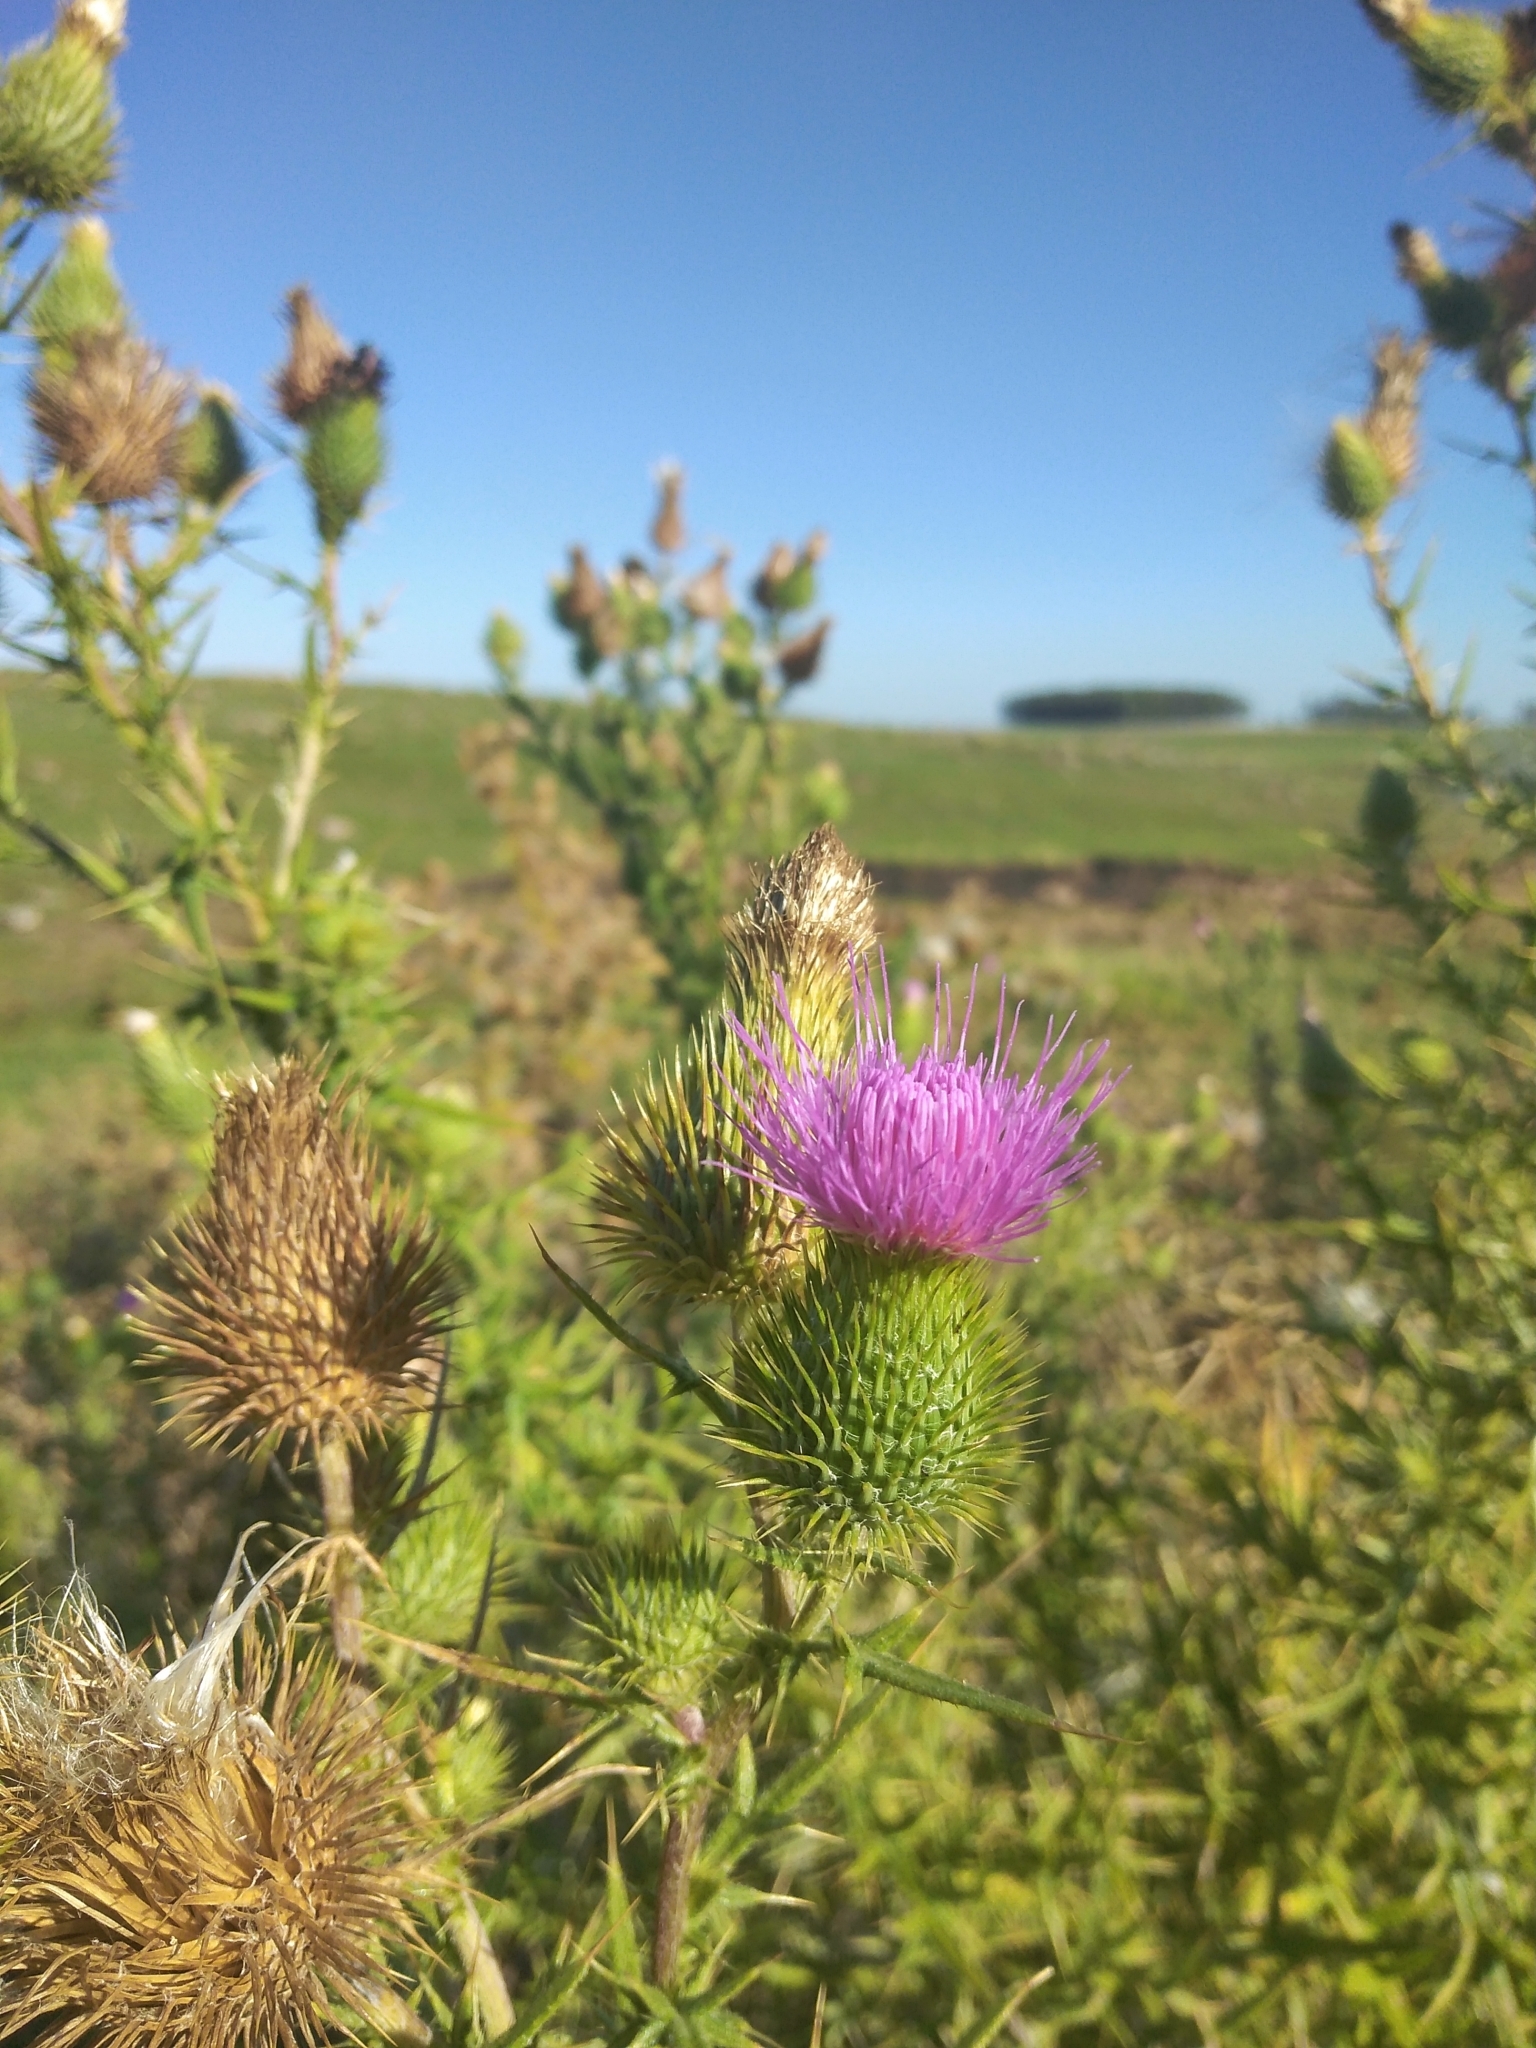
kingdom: Plantae
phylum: Tracheophyta
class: Magnoliopsida
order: Asterales
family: Asteraceae
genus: Cirsium
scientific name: Cirsium vulgare
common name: Bull thistle
